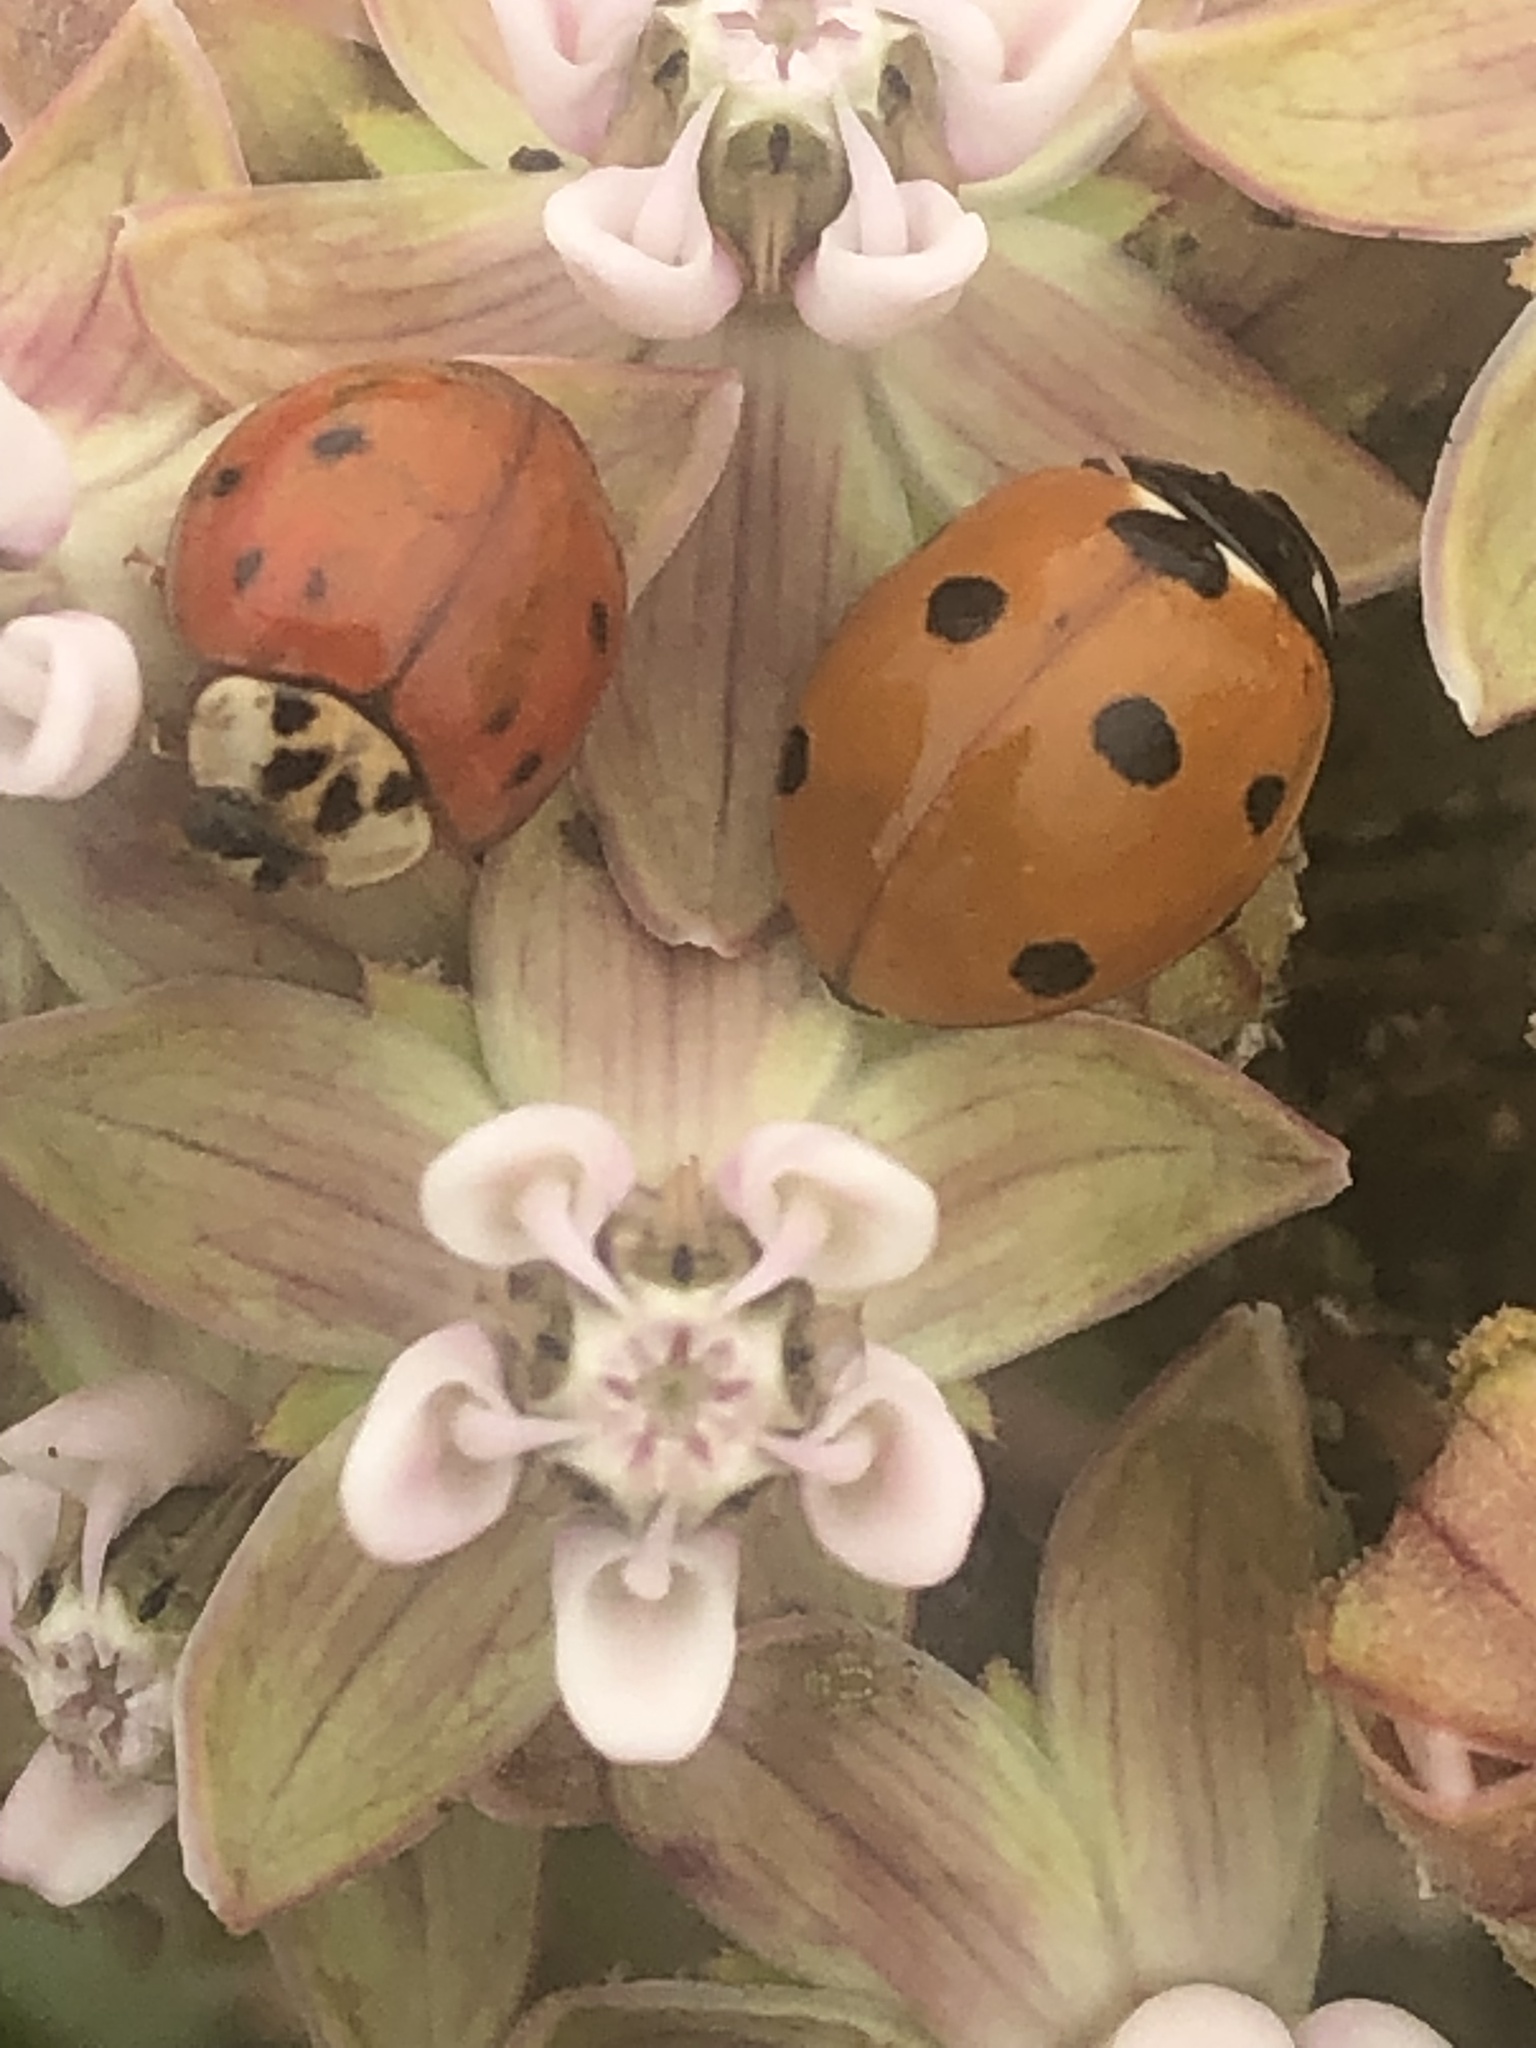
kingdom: Animalia
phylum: Arthropoda
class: Insecta
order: Coleoptera
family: Coccinellidae
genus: Coccinella
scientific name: Coccinella septempunctata
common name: Sevenspotted lady beetle
